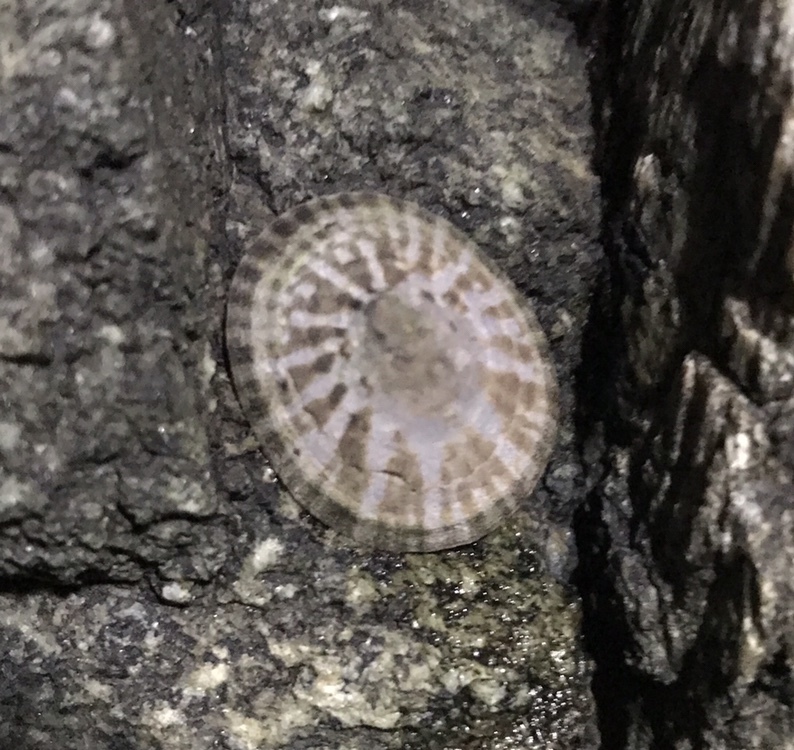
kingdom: Animalia
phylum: Mollusca
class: Gastropoda
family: Lottiidae
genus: Lottia
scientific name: Lottia pelta
